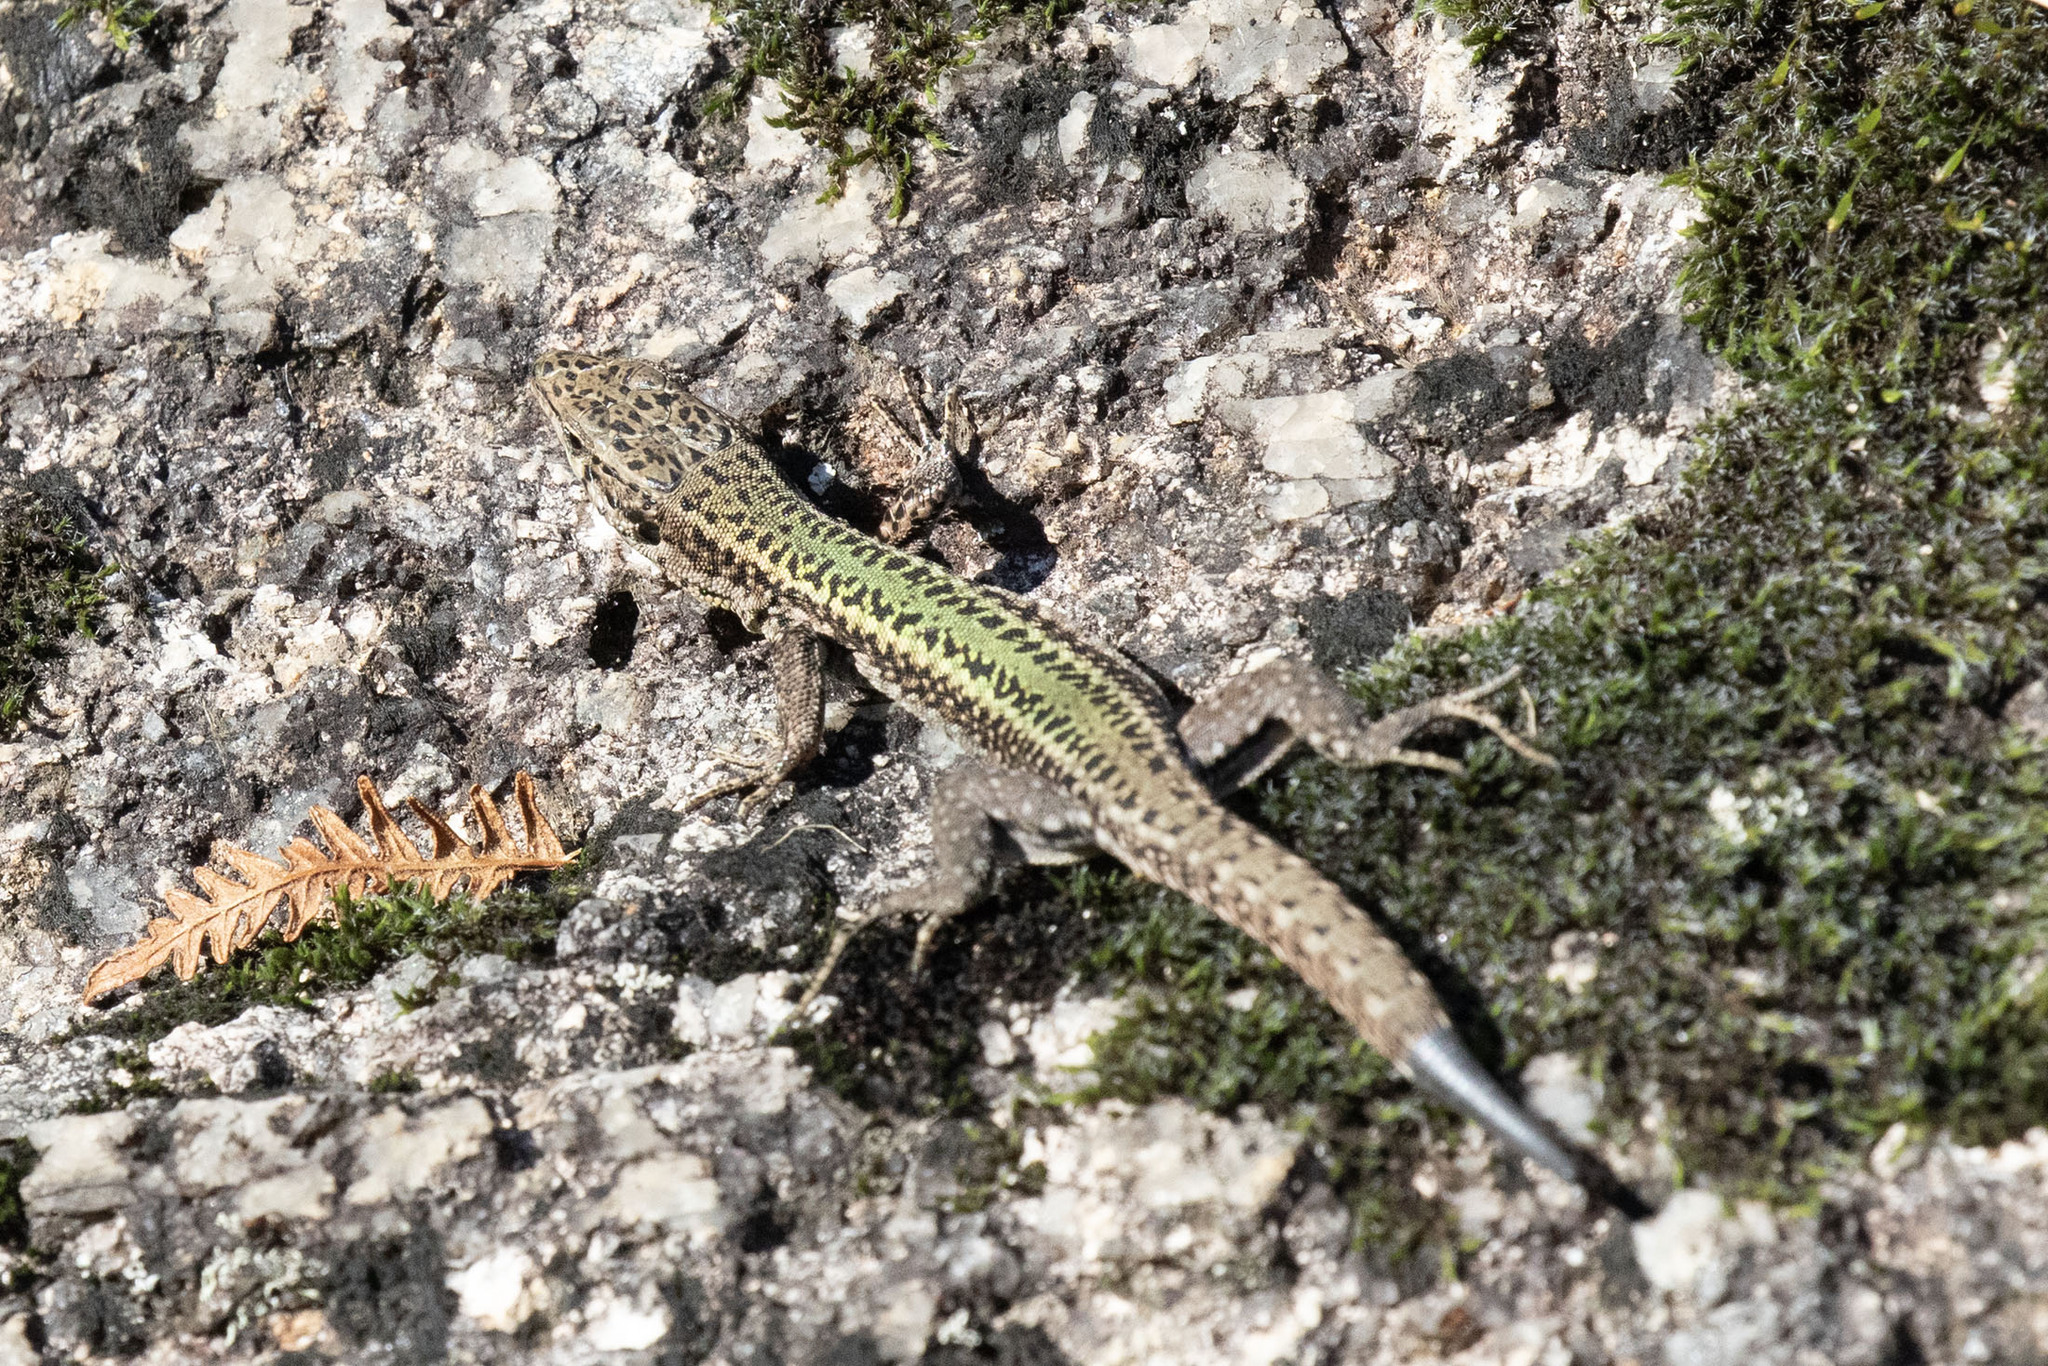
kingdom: Animalia
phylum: Chordata
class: Squamata
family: Lacertidae
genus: Podarcis
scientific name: Podarcis bocagei
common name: Bocage's wall lizard
